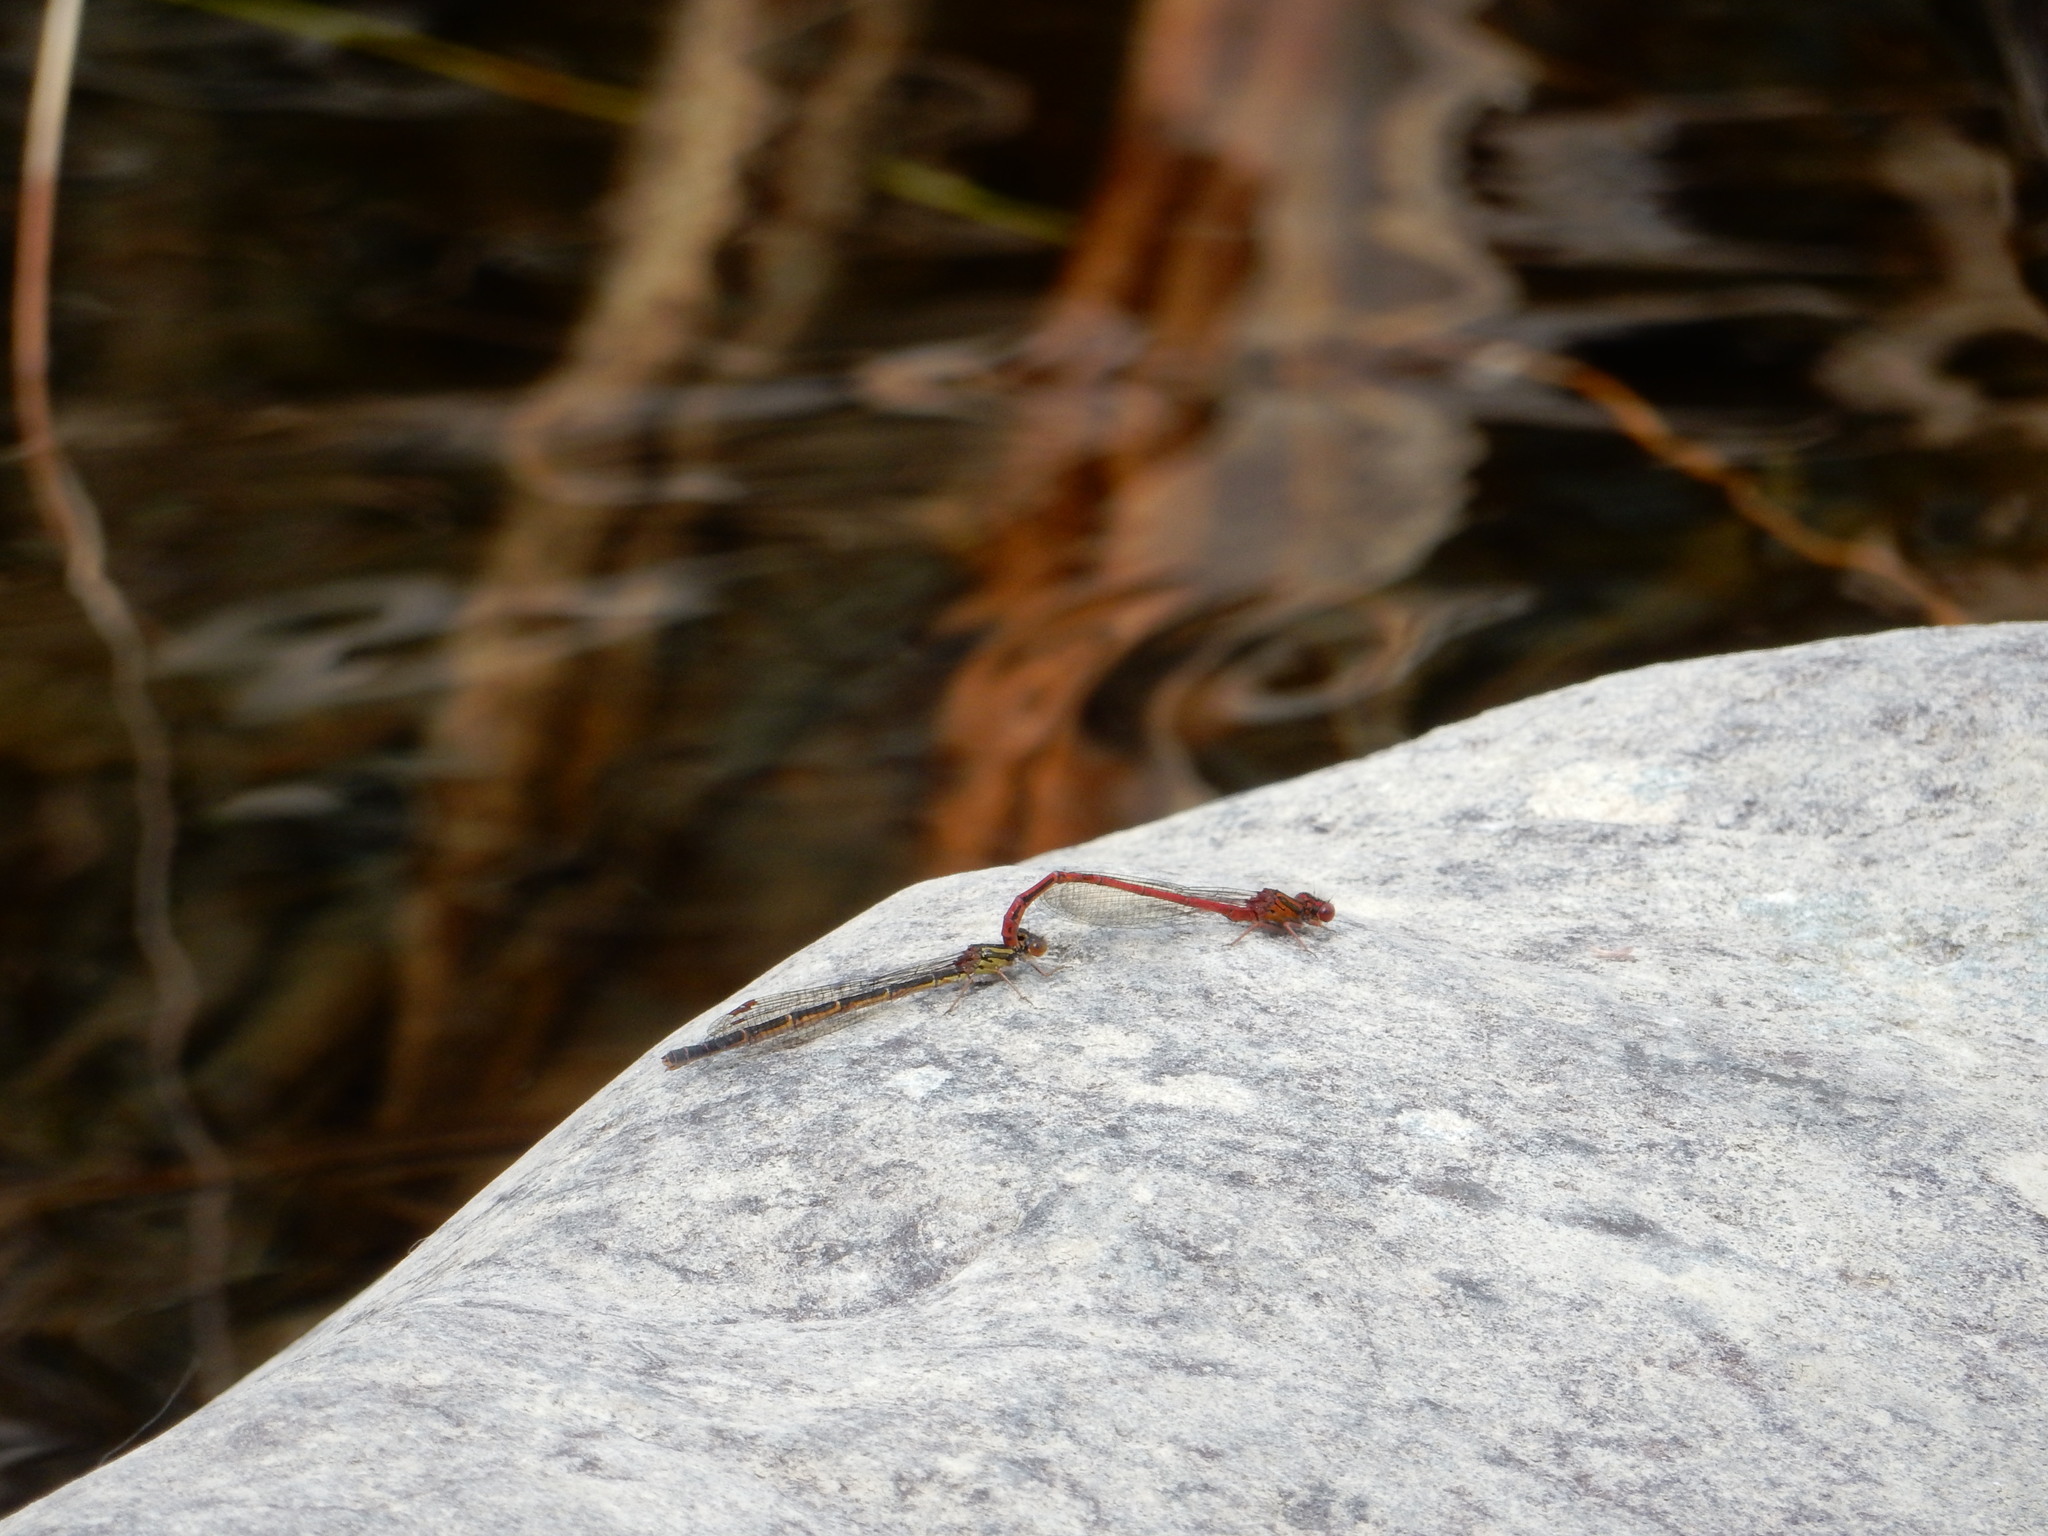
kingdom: Animalia
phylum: Arthropoda
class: Insecta
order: Odonata
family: Coenagrionidae
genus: Xanthocnemis
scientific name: Xanthocnemis zealandica
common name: Common redcoat damselfly
